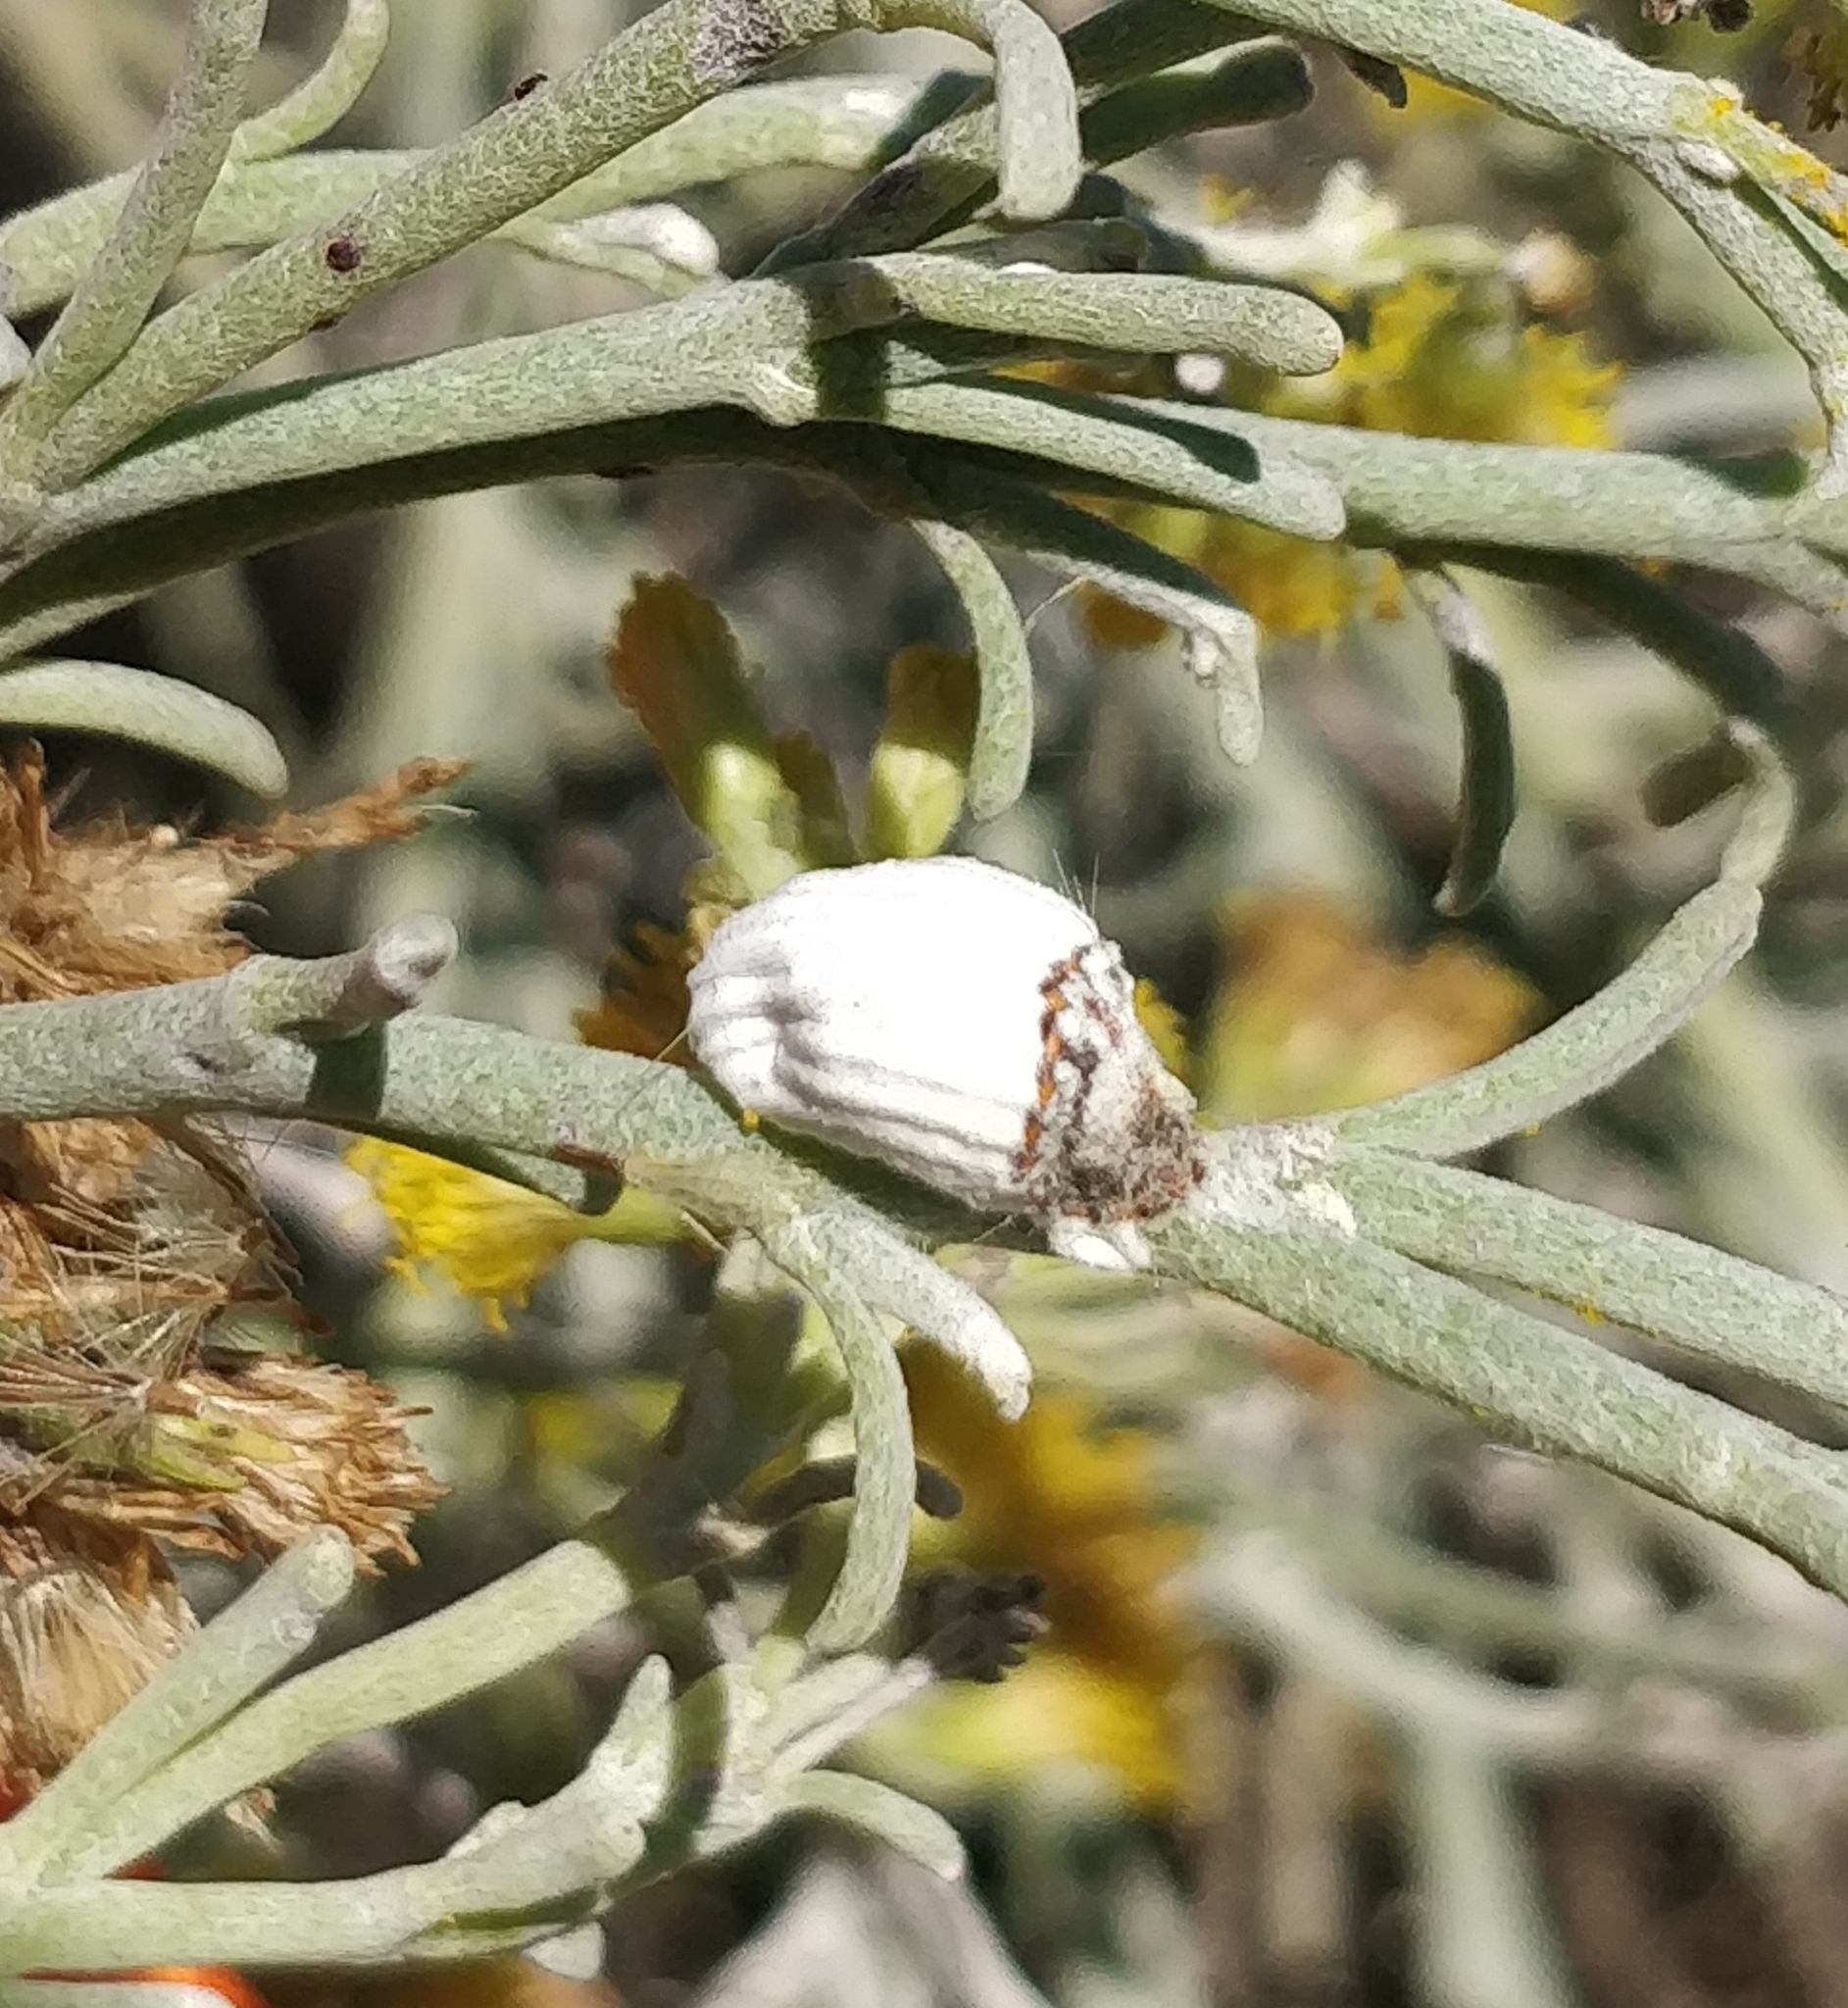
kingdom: Animalia
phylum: Arthropoda
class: Insecta
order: Hemiptera
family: Margarodidae
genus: Icerya
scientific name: Icerya purchasi
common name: Cottony cushion scale
